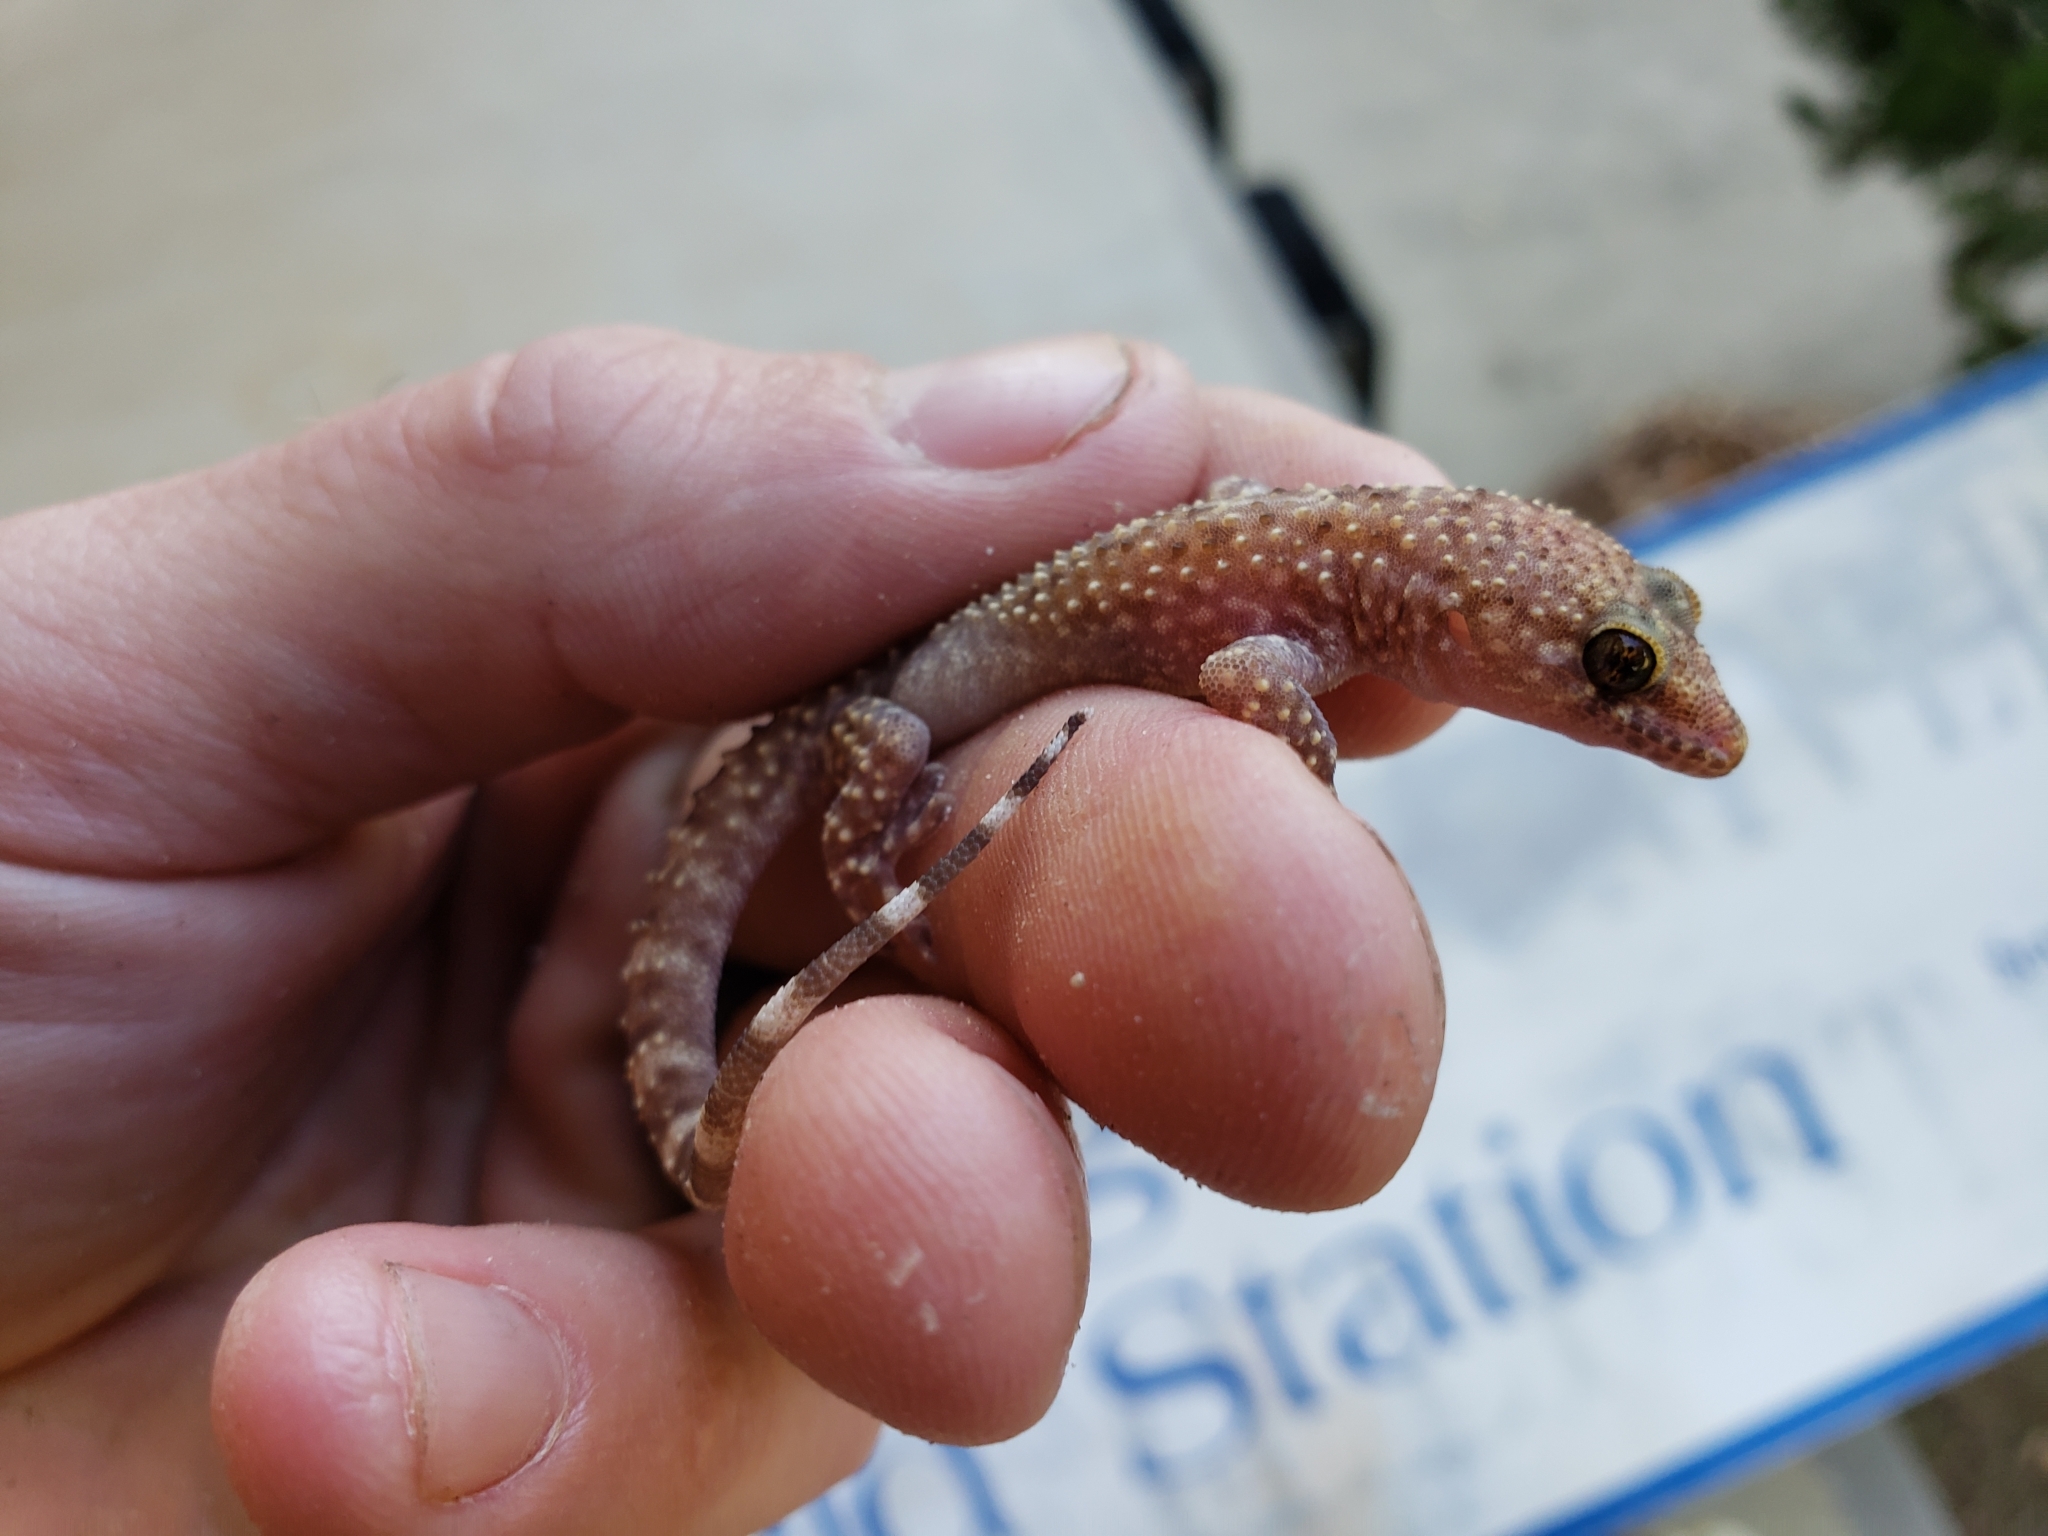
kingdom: Animalia
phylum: Chordata
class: Squamata
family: Gekkonidae
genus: Hemidactylus
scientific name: Hemidactylus turcicus
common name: Turkish gecko
